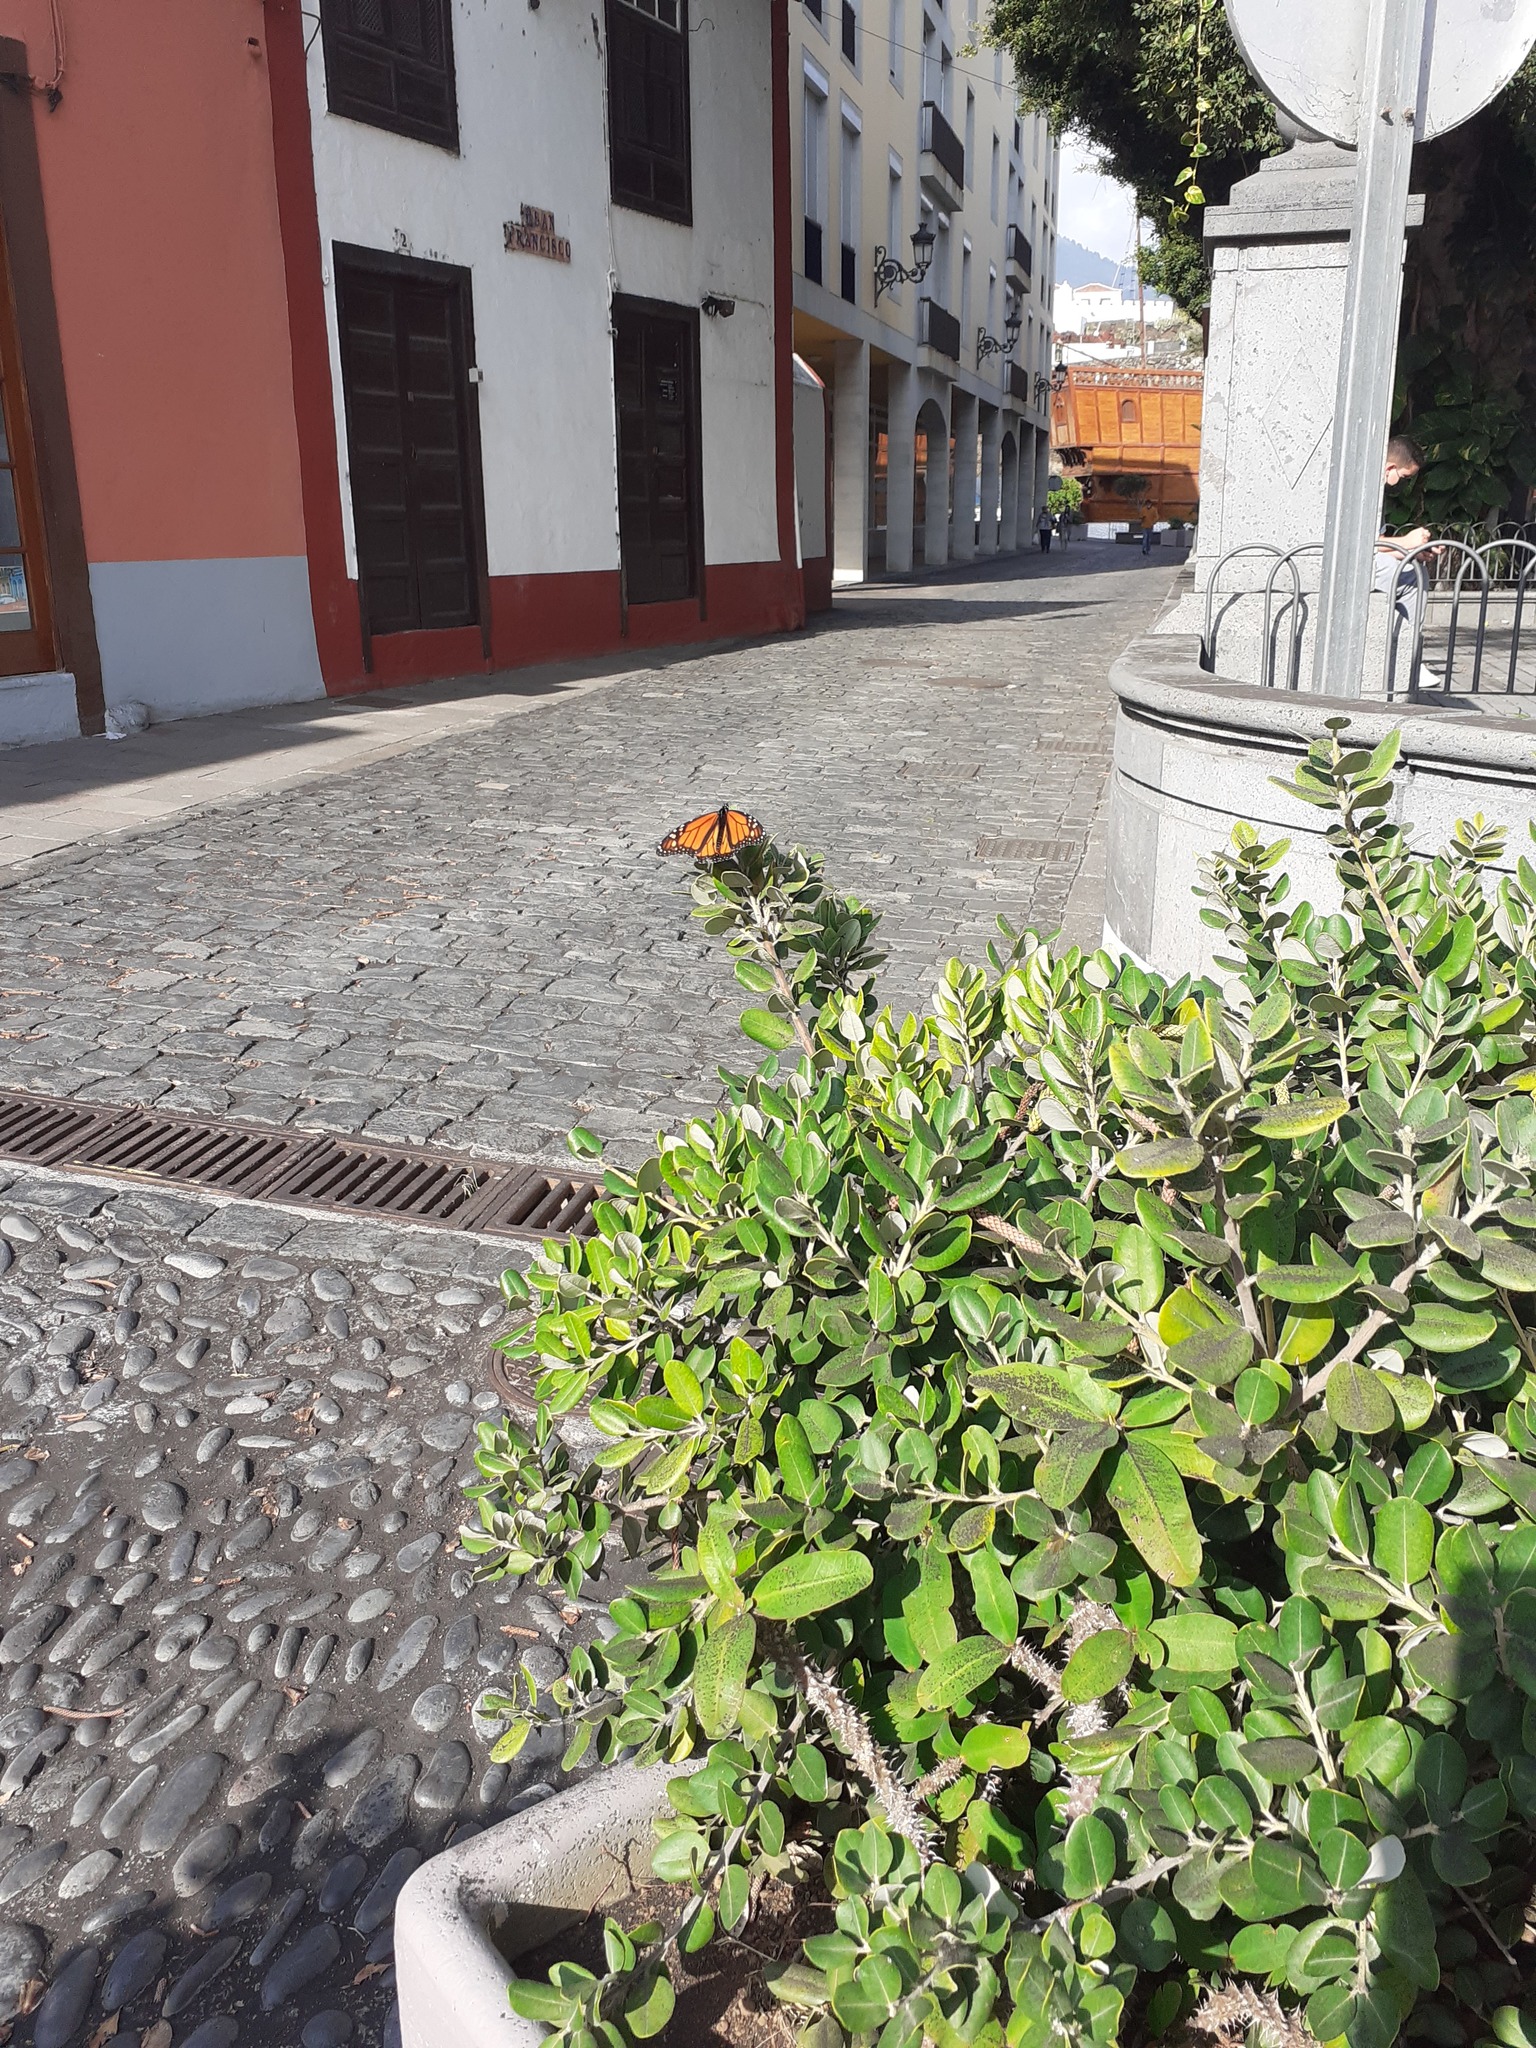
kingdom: Animalia
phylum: Arthropoda
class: Insecta
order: Lepidoptera
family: Nymphalidae
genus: Danaus
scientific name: Danaus plexippus
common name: Monarch
